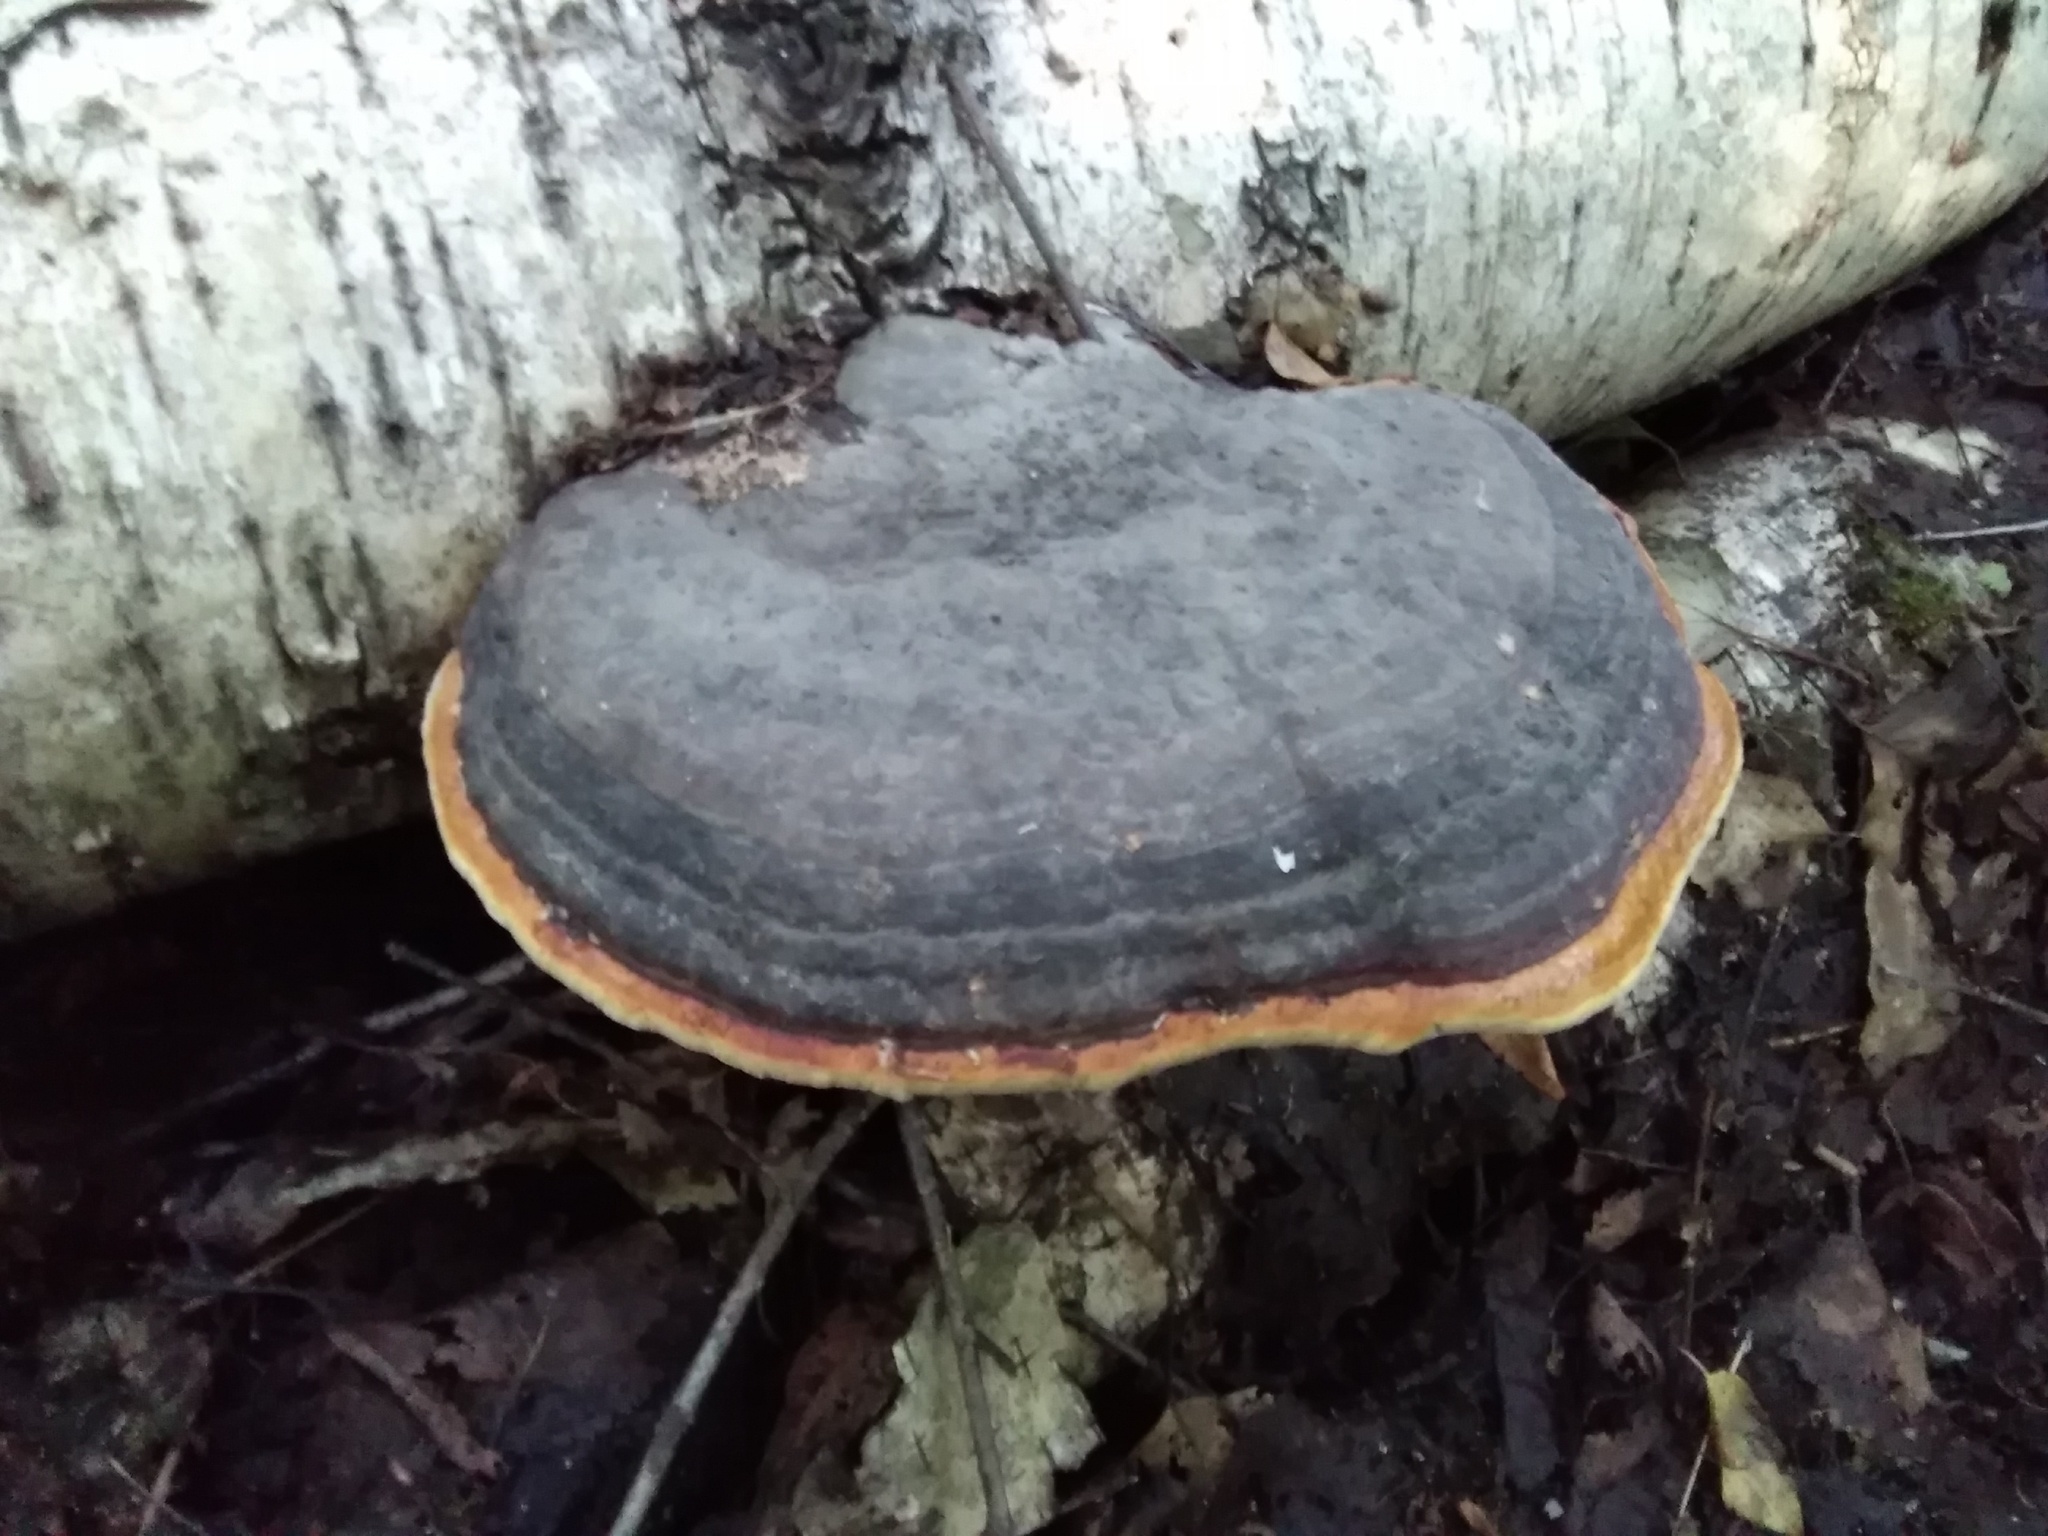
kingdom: Fungi
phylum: Basidiomycota
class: Agaricomycetes
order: Polyporales
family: Fomitopsidaceae
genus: Fomitopsis
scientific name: Fomitopsis pinicola
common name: Red-belted bracket
